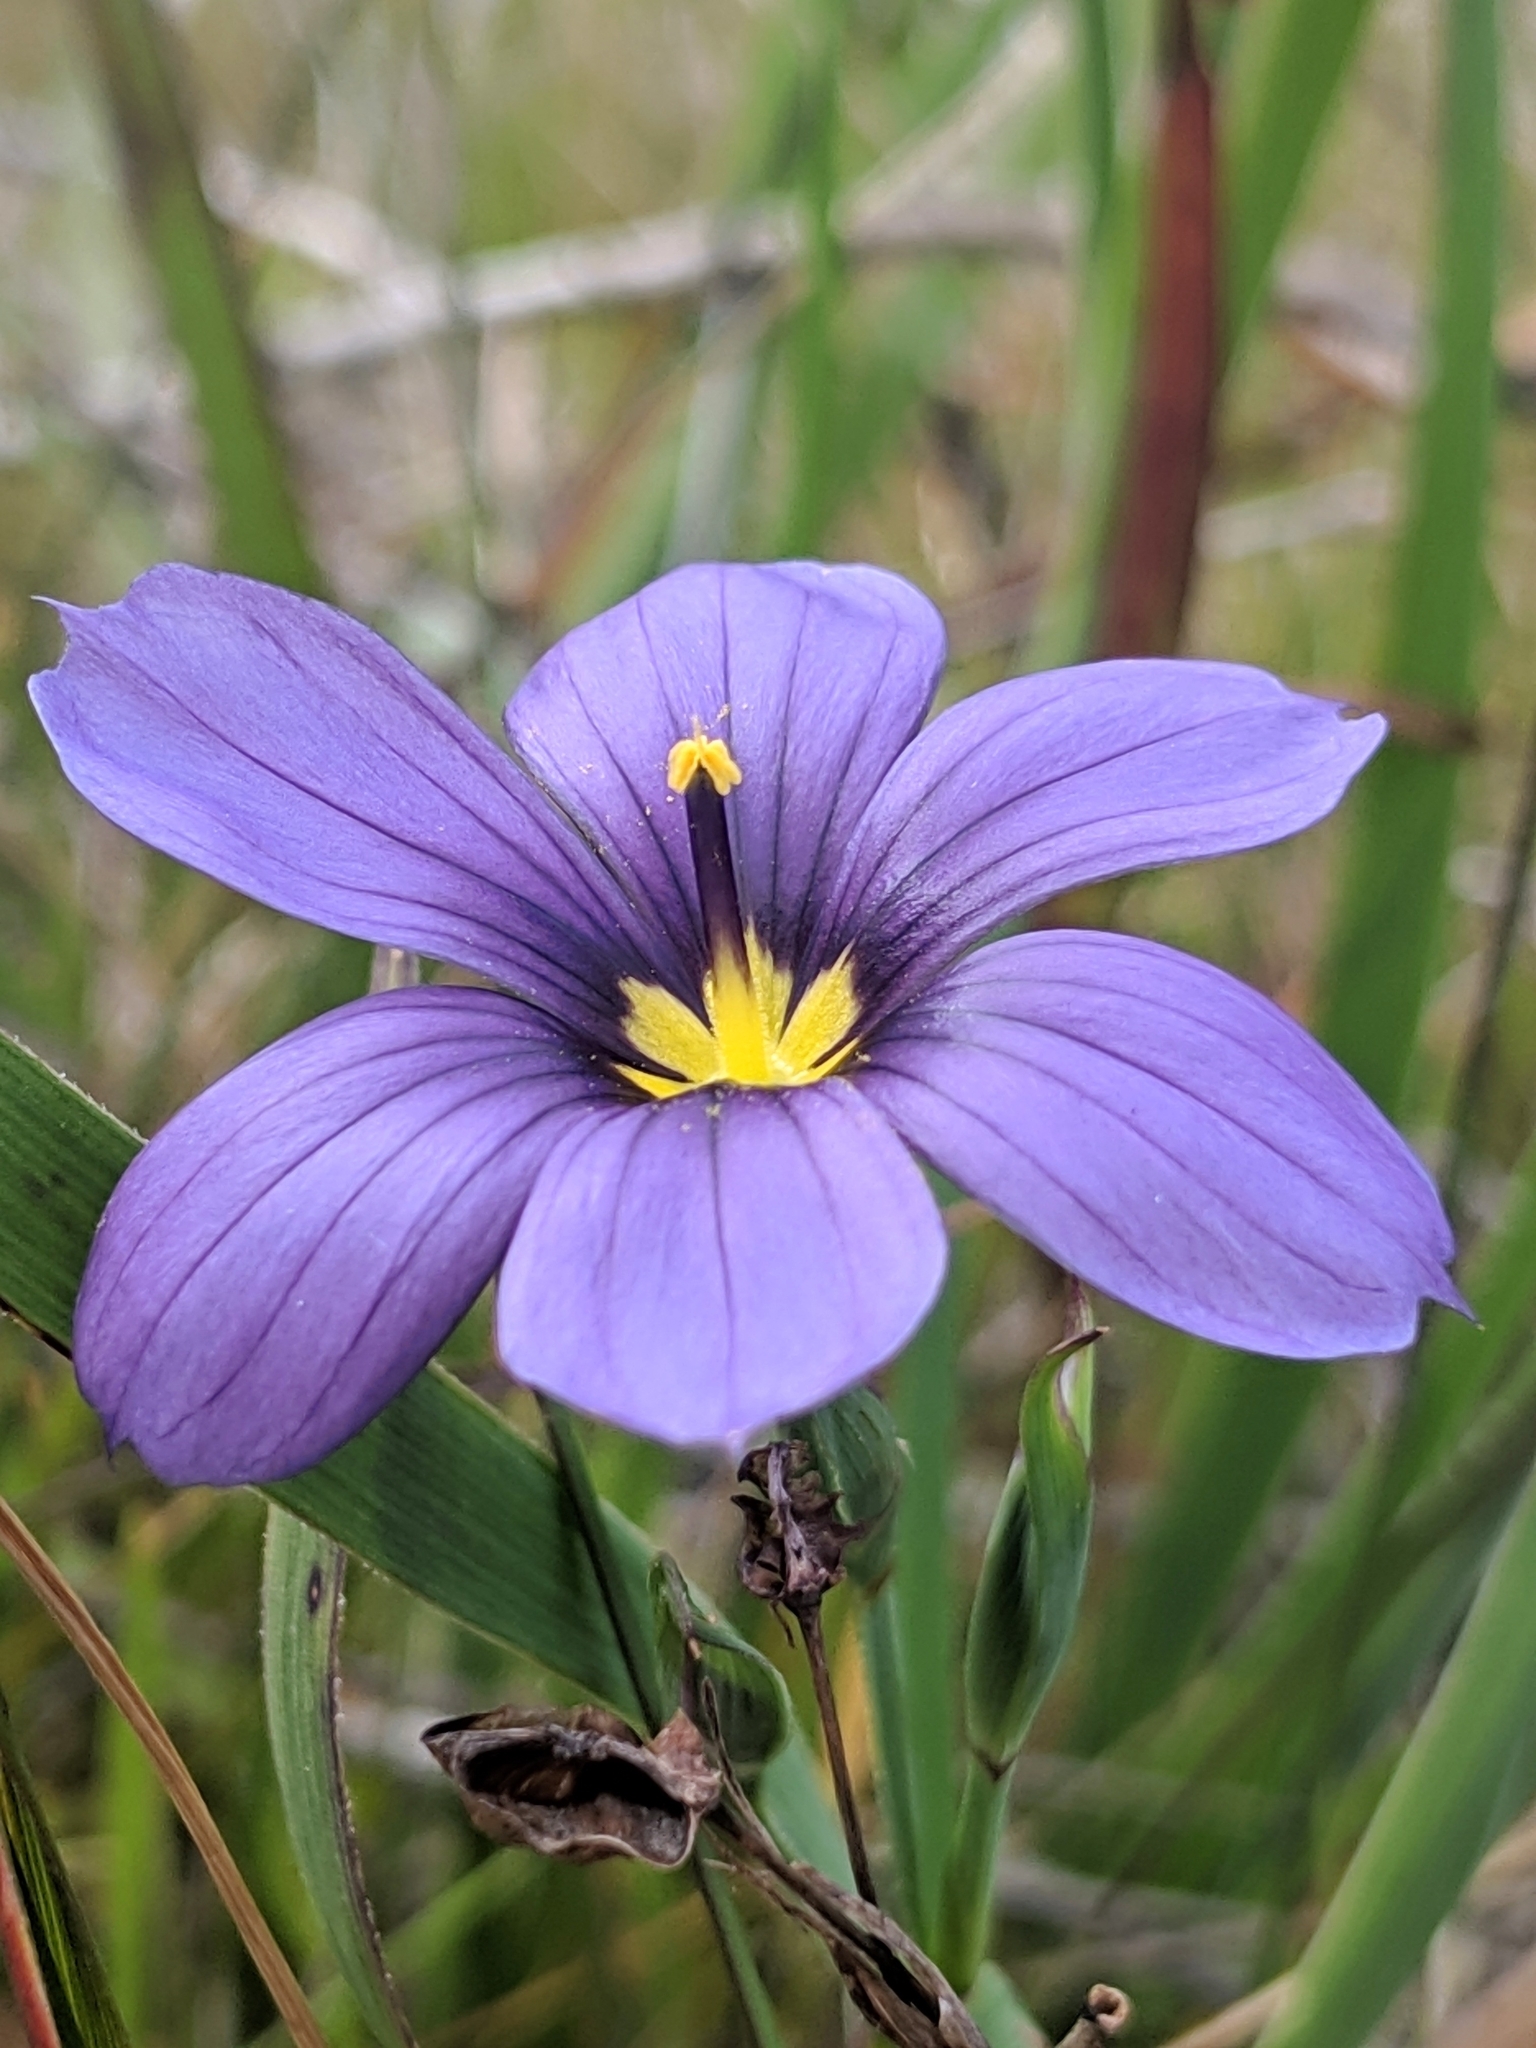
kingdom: Plantae
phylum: Tracheophyta
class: Liliopsida
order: Asparagales
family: Iridaceae
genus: Sisyrinchium
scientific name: Sisyrinchium bellum
